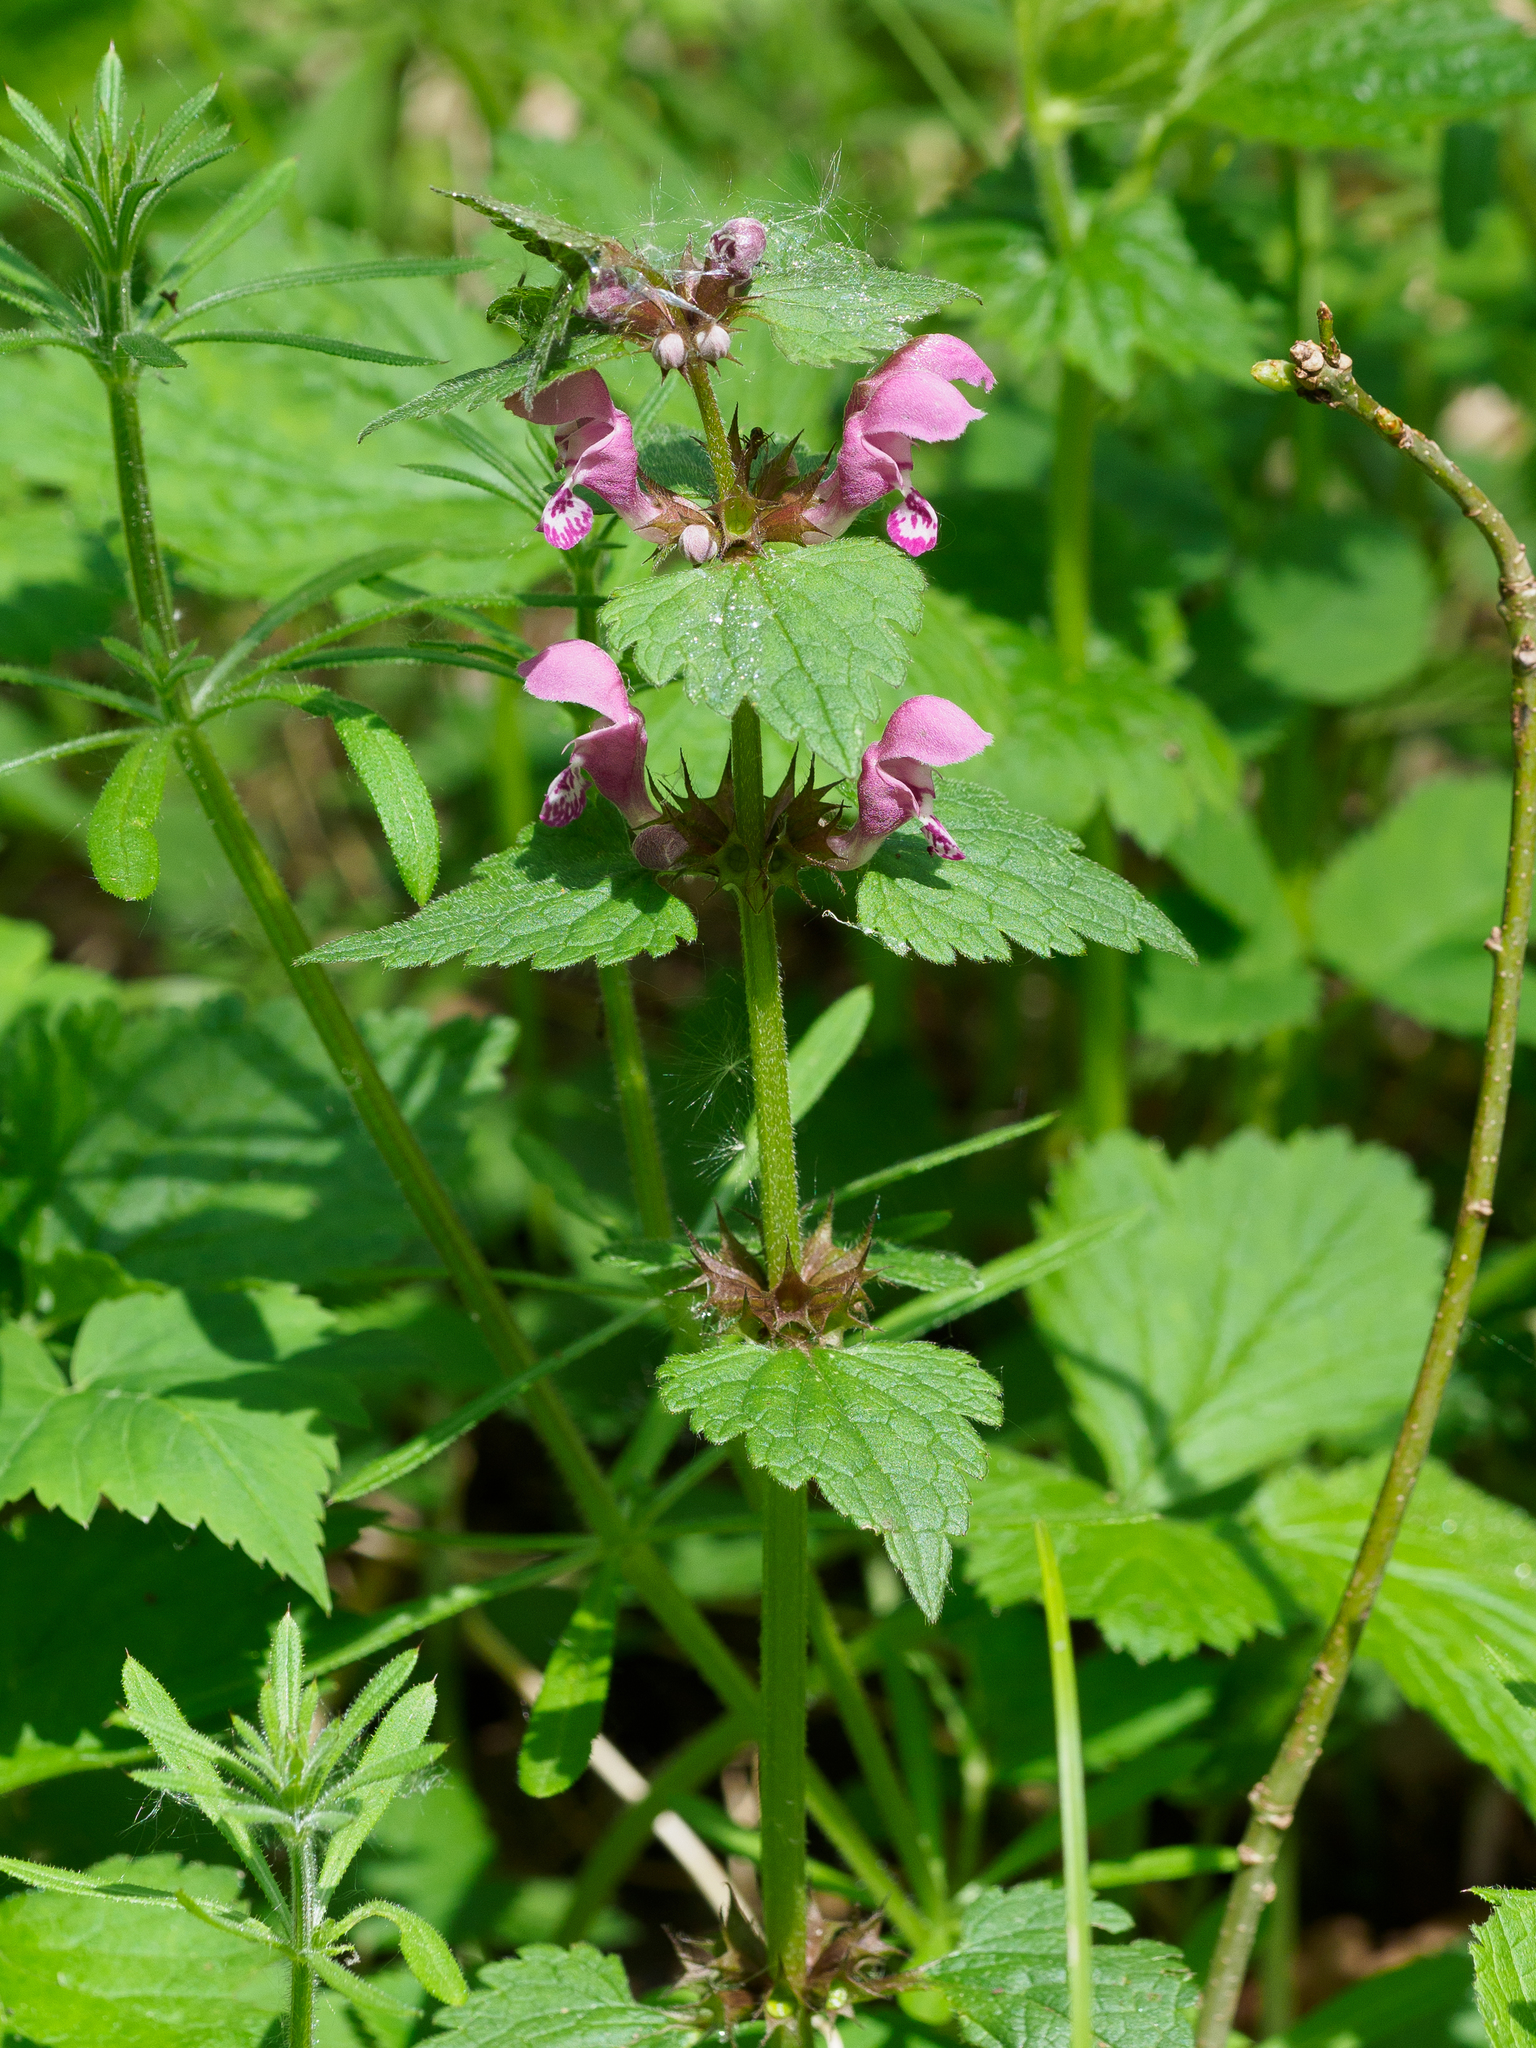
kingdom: Plantae
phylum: Tracheophyta
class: Magnoliopsida
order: Lamiales
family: Lamiaceae
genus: Lamium
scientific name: Lamium maculatum
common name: Spotted dead-nettle
